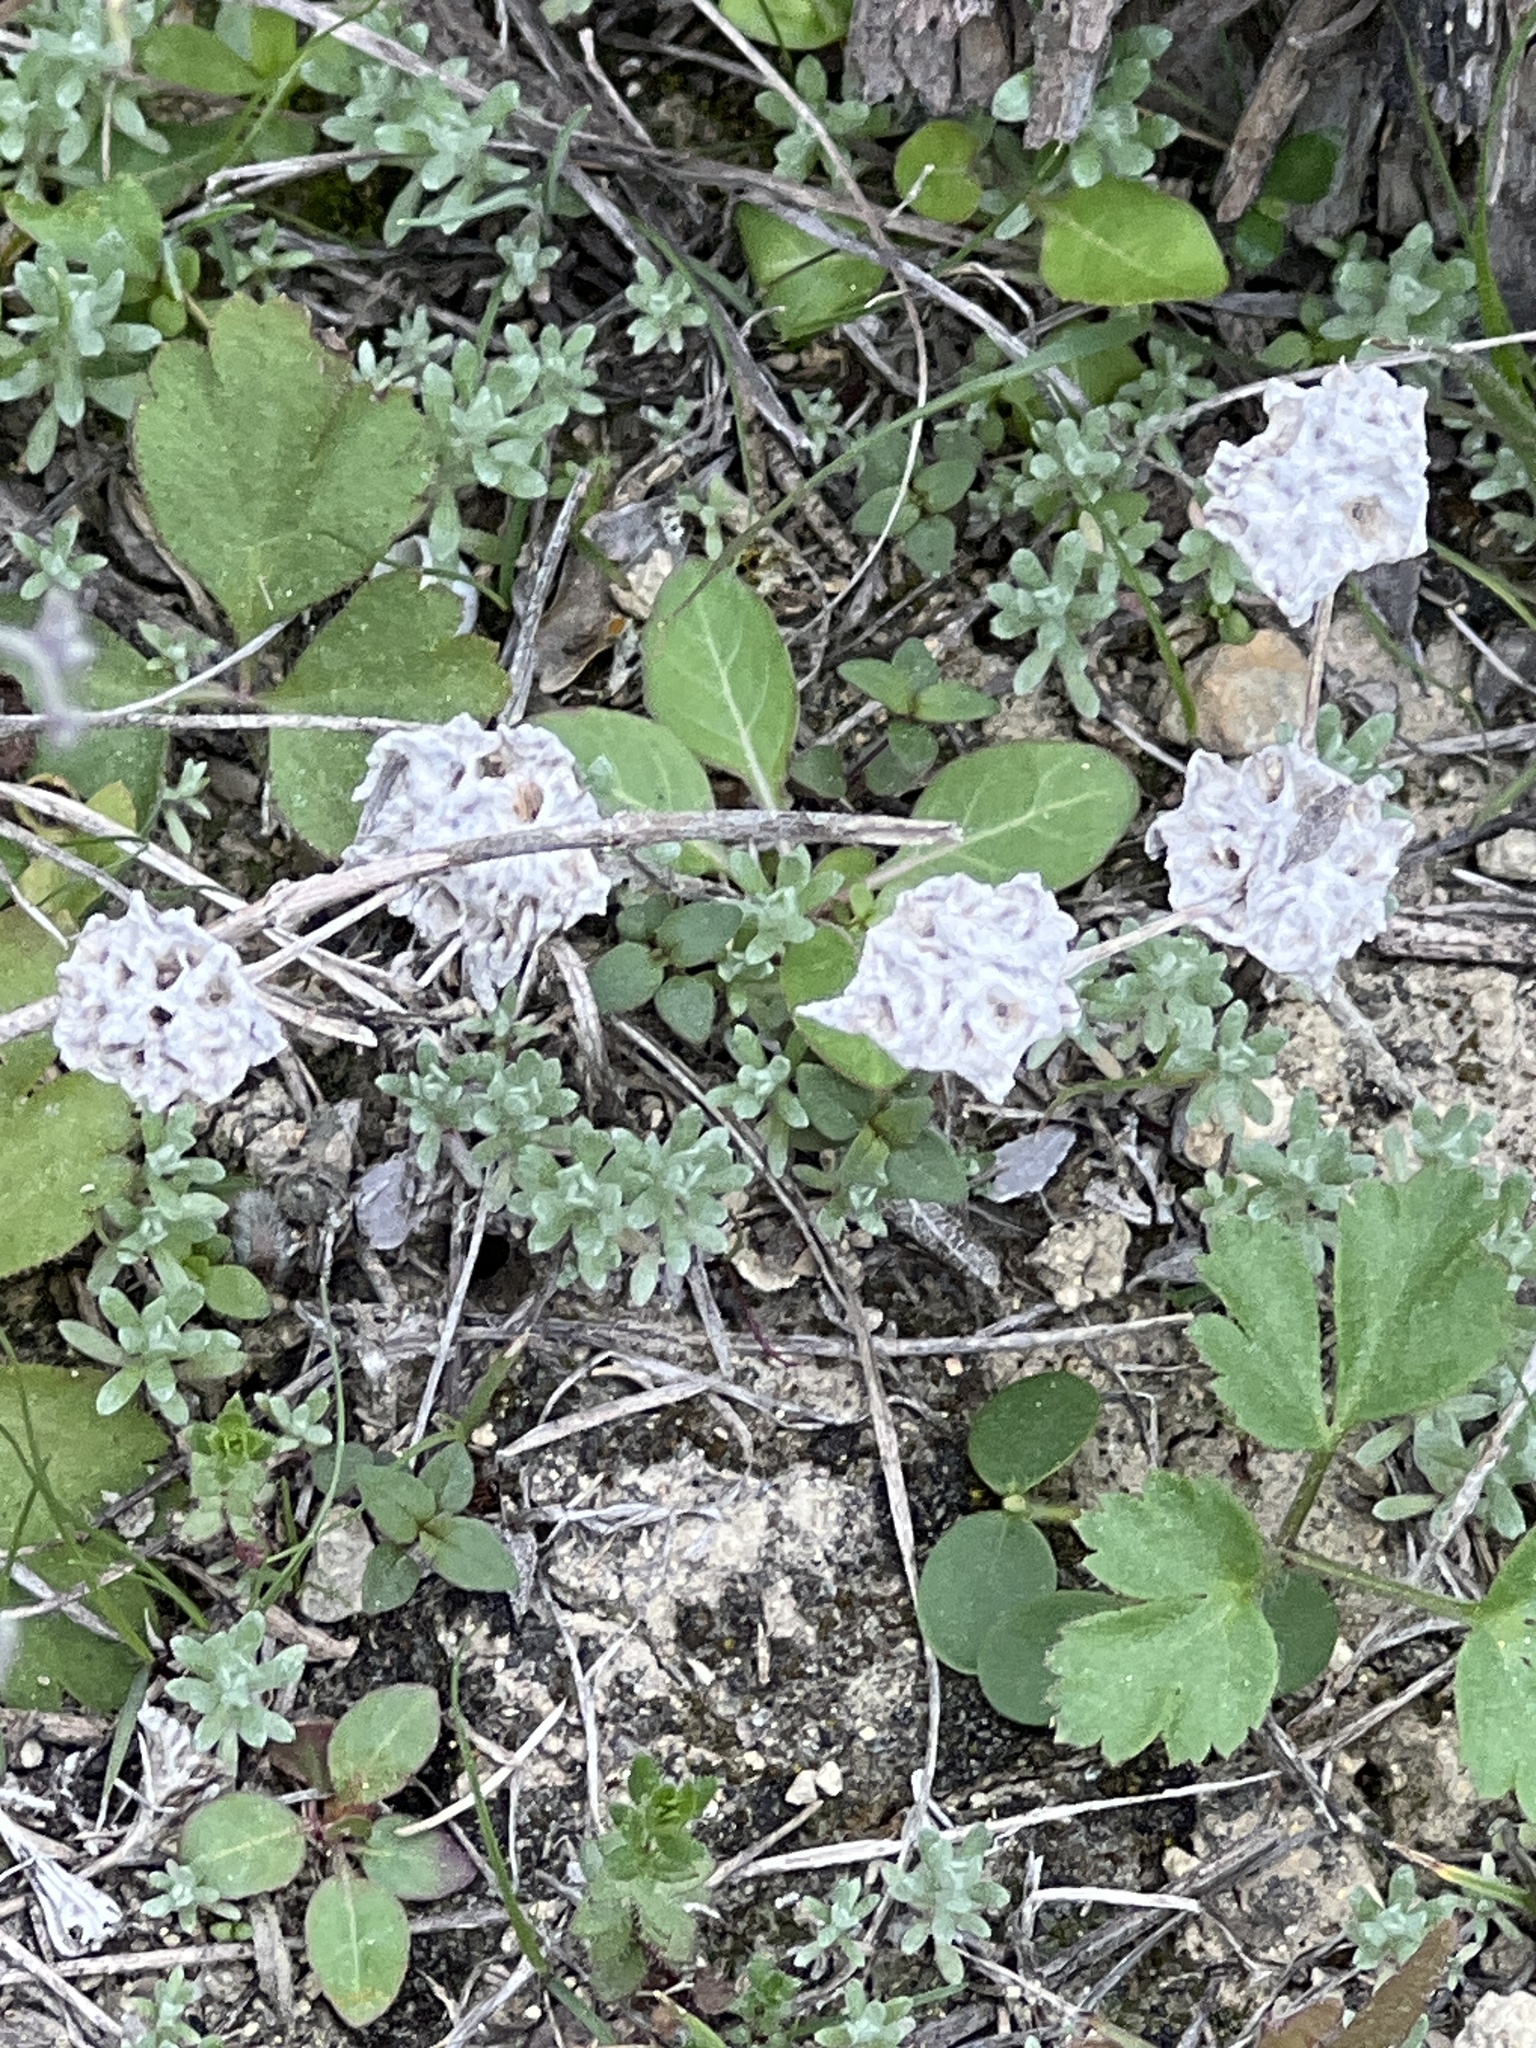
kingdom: Plantae
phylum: Tracheophyta
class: Magnoliopsida
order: Asterales
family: Asteraceae
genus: Diaperia
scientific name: Diaperia prolifera
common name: Big-head rabbit-tobacco
